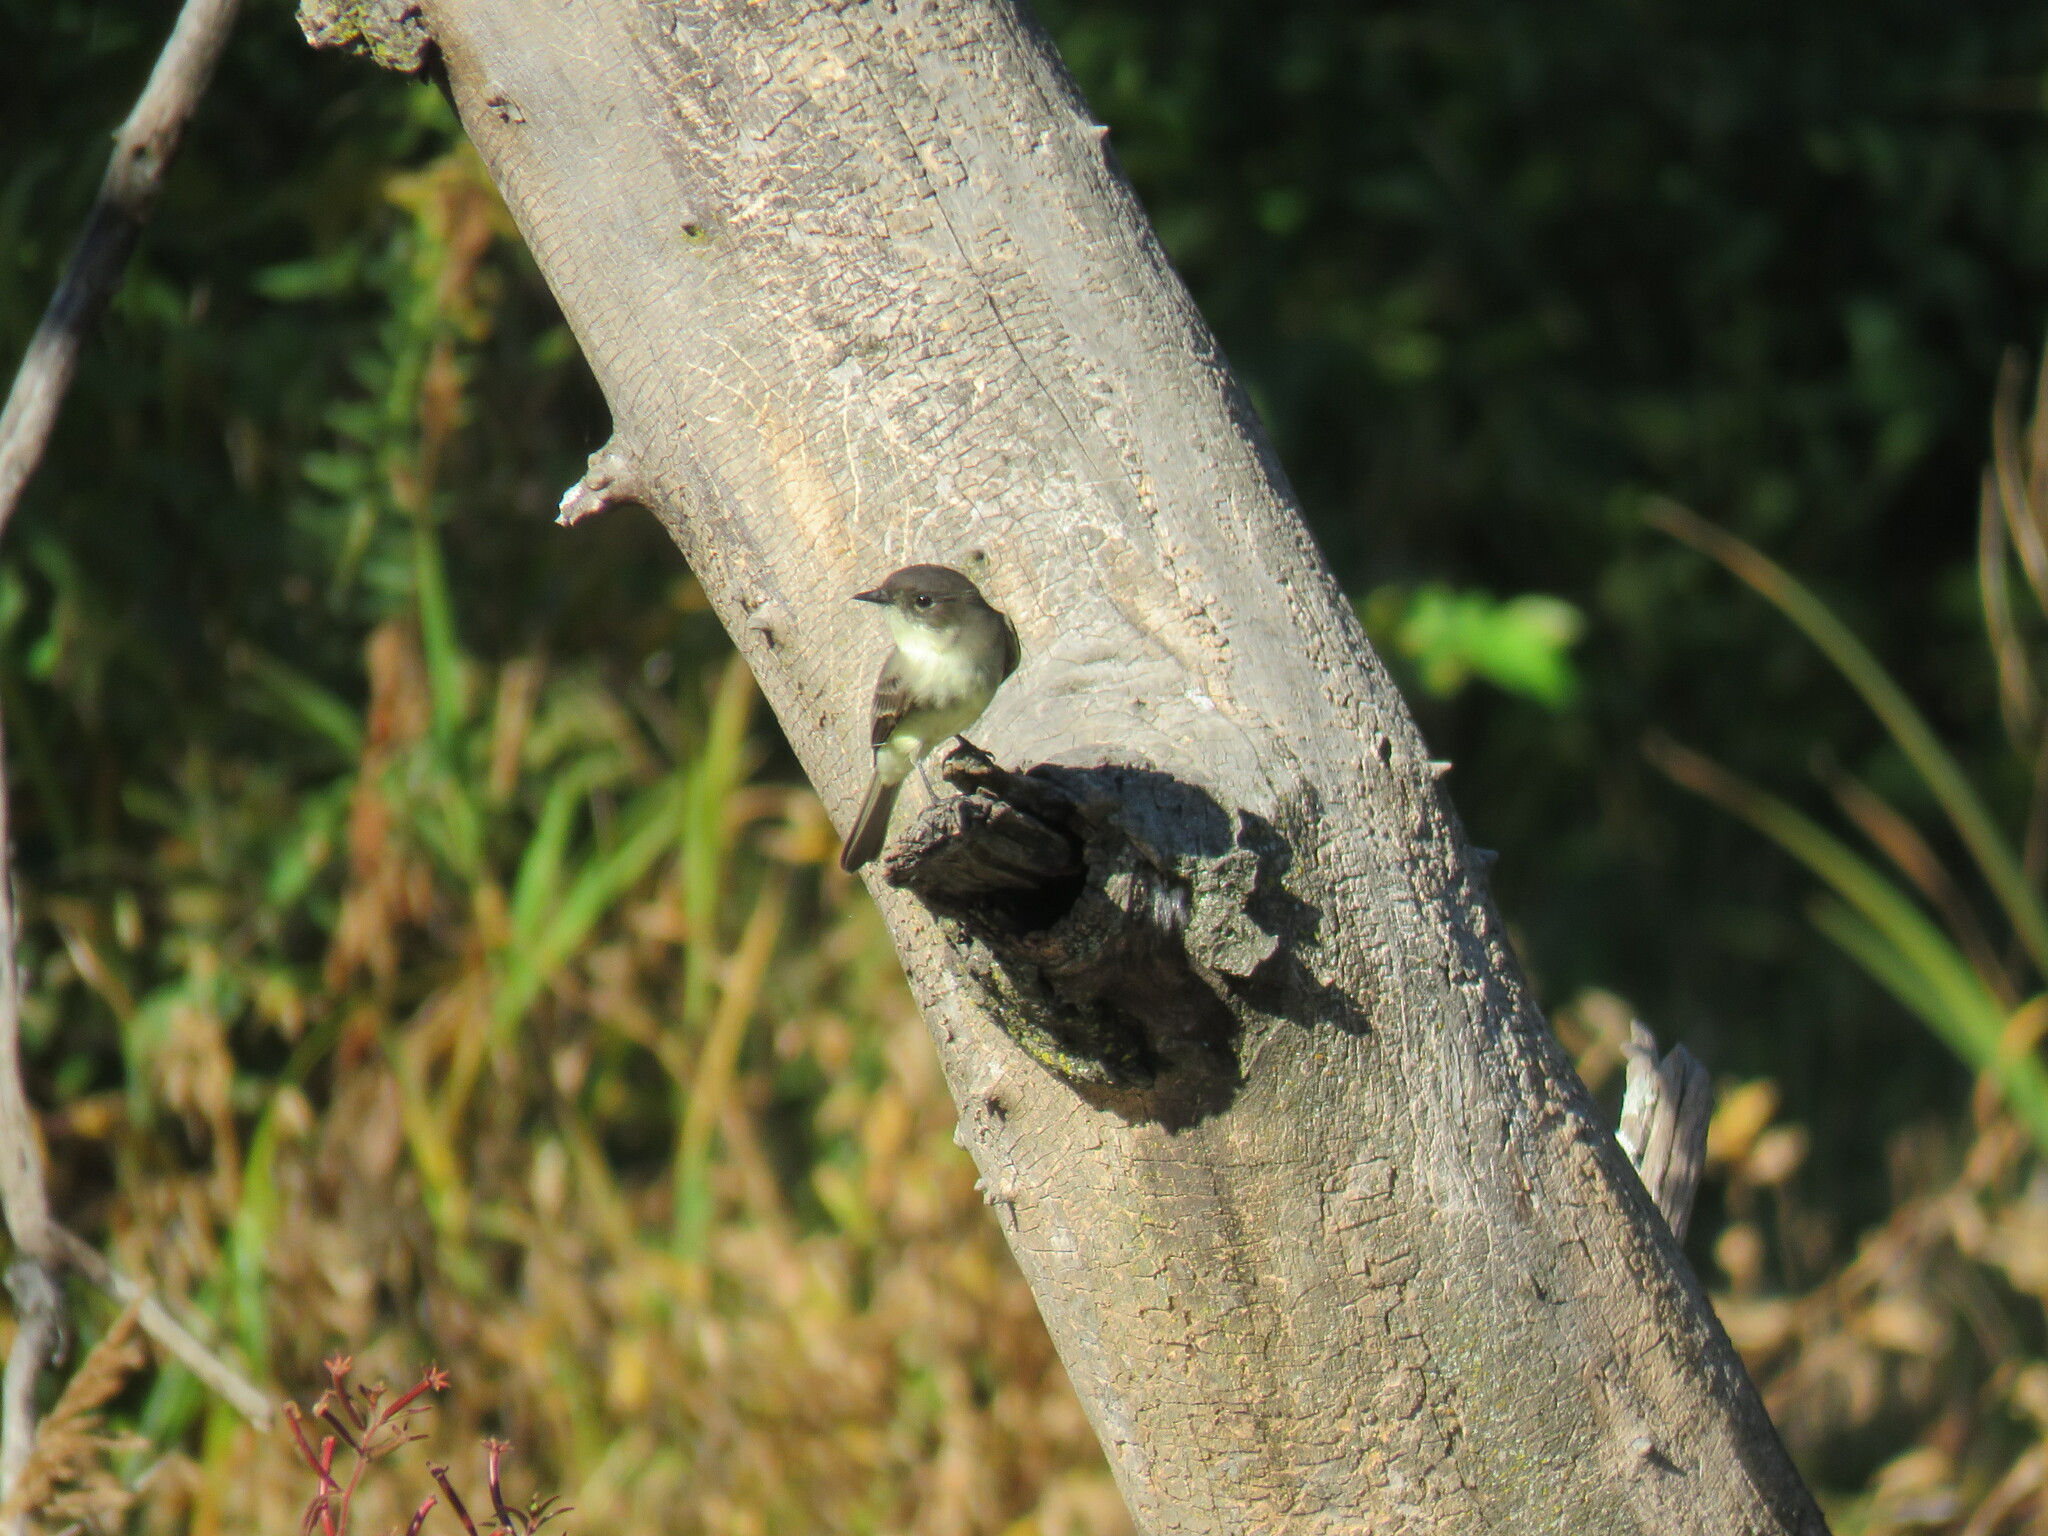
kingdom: Animalia
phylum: Chordata
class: Aves
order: Passeriformes
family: Tyrannidae
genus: Sayornis
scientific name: Sayornis phoebe
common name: Eastern phoebe
